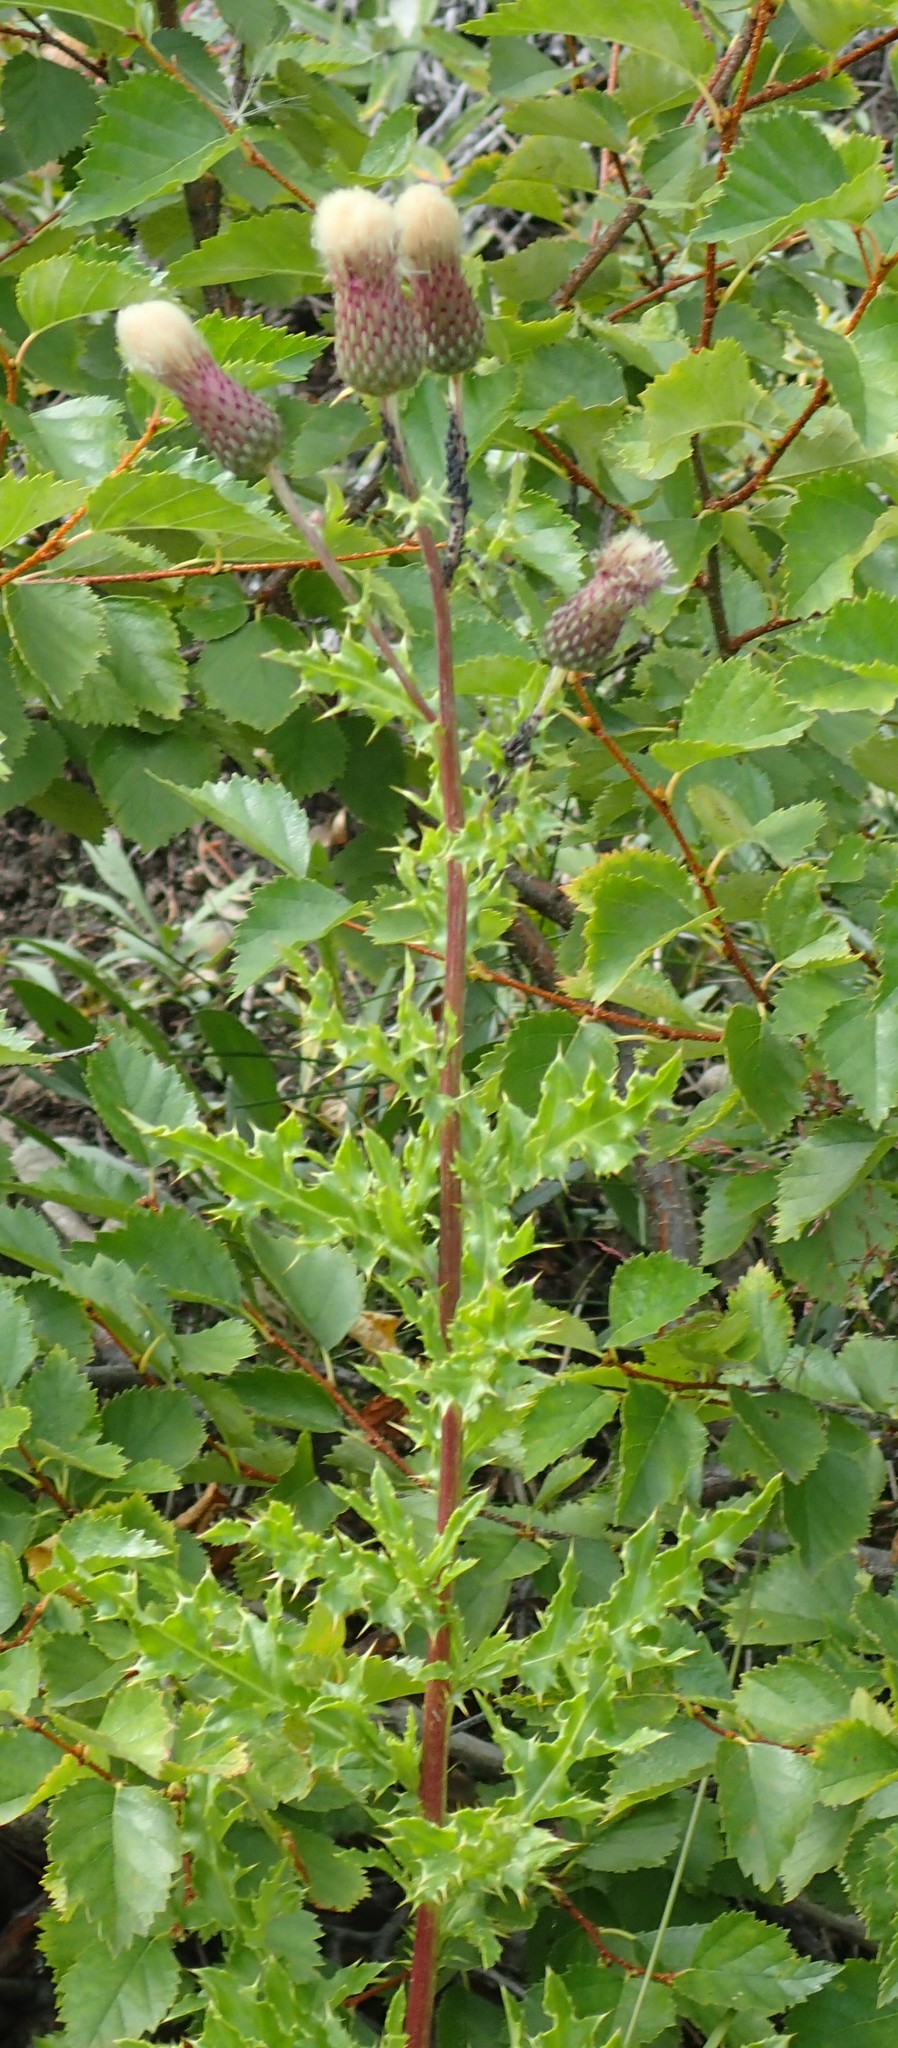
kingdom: Plantae
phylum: Tracheophyta
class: Magnoliopsida
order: Asterales
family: Asteraceae
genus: Cirsium
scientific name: Cirsium arvense
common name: Creeping thistle
